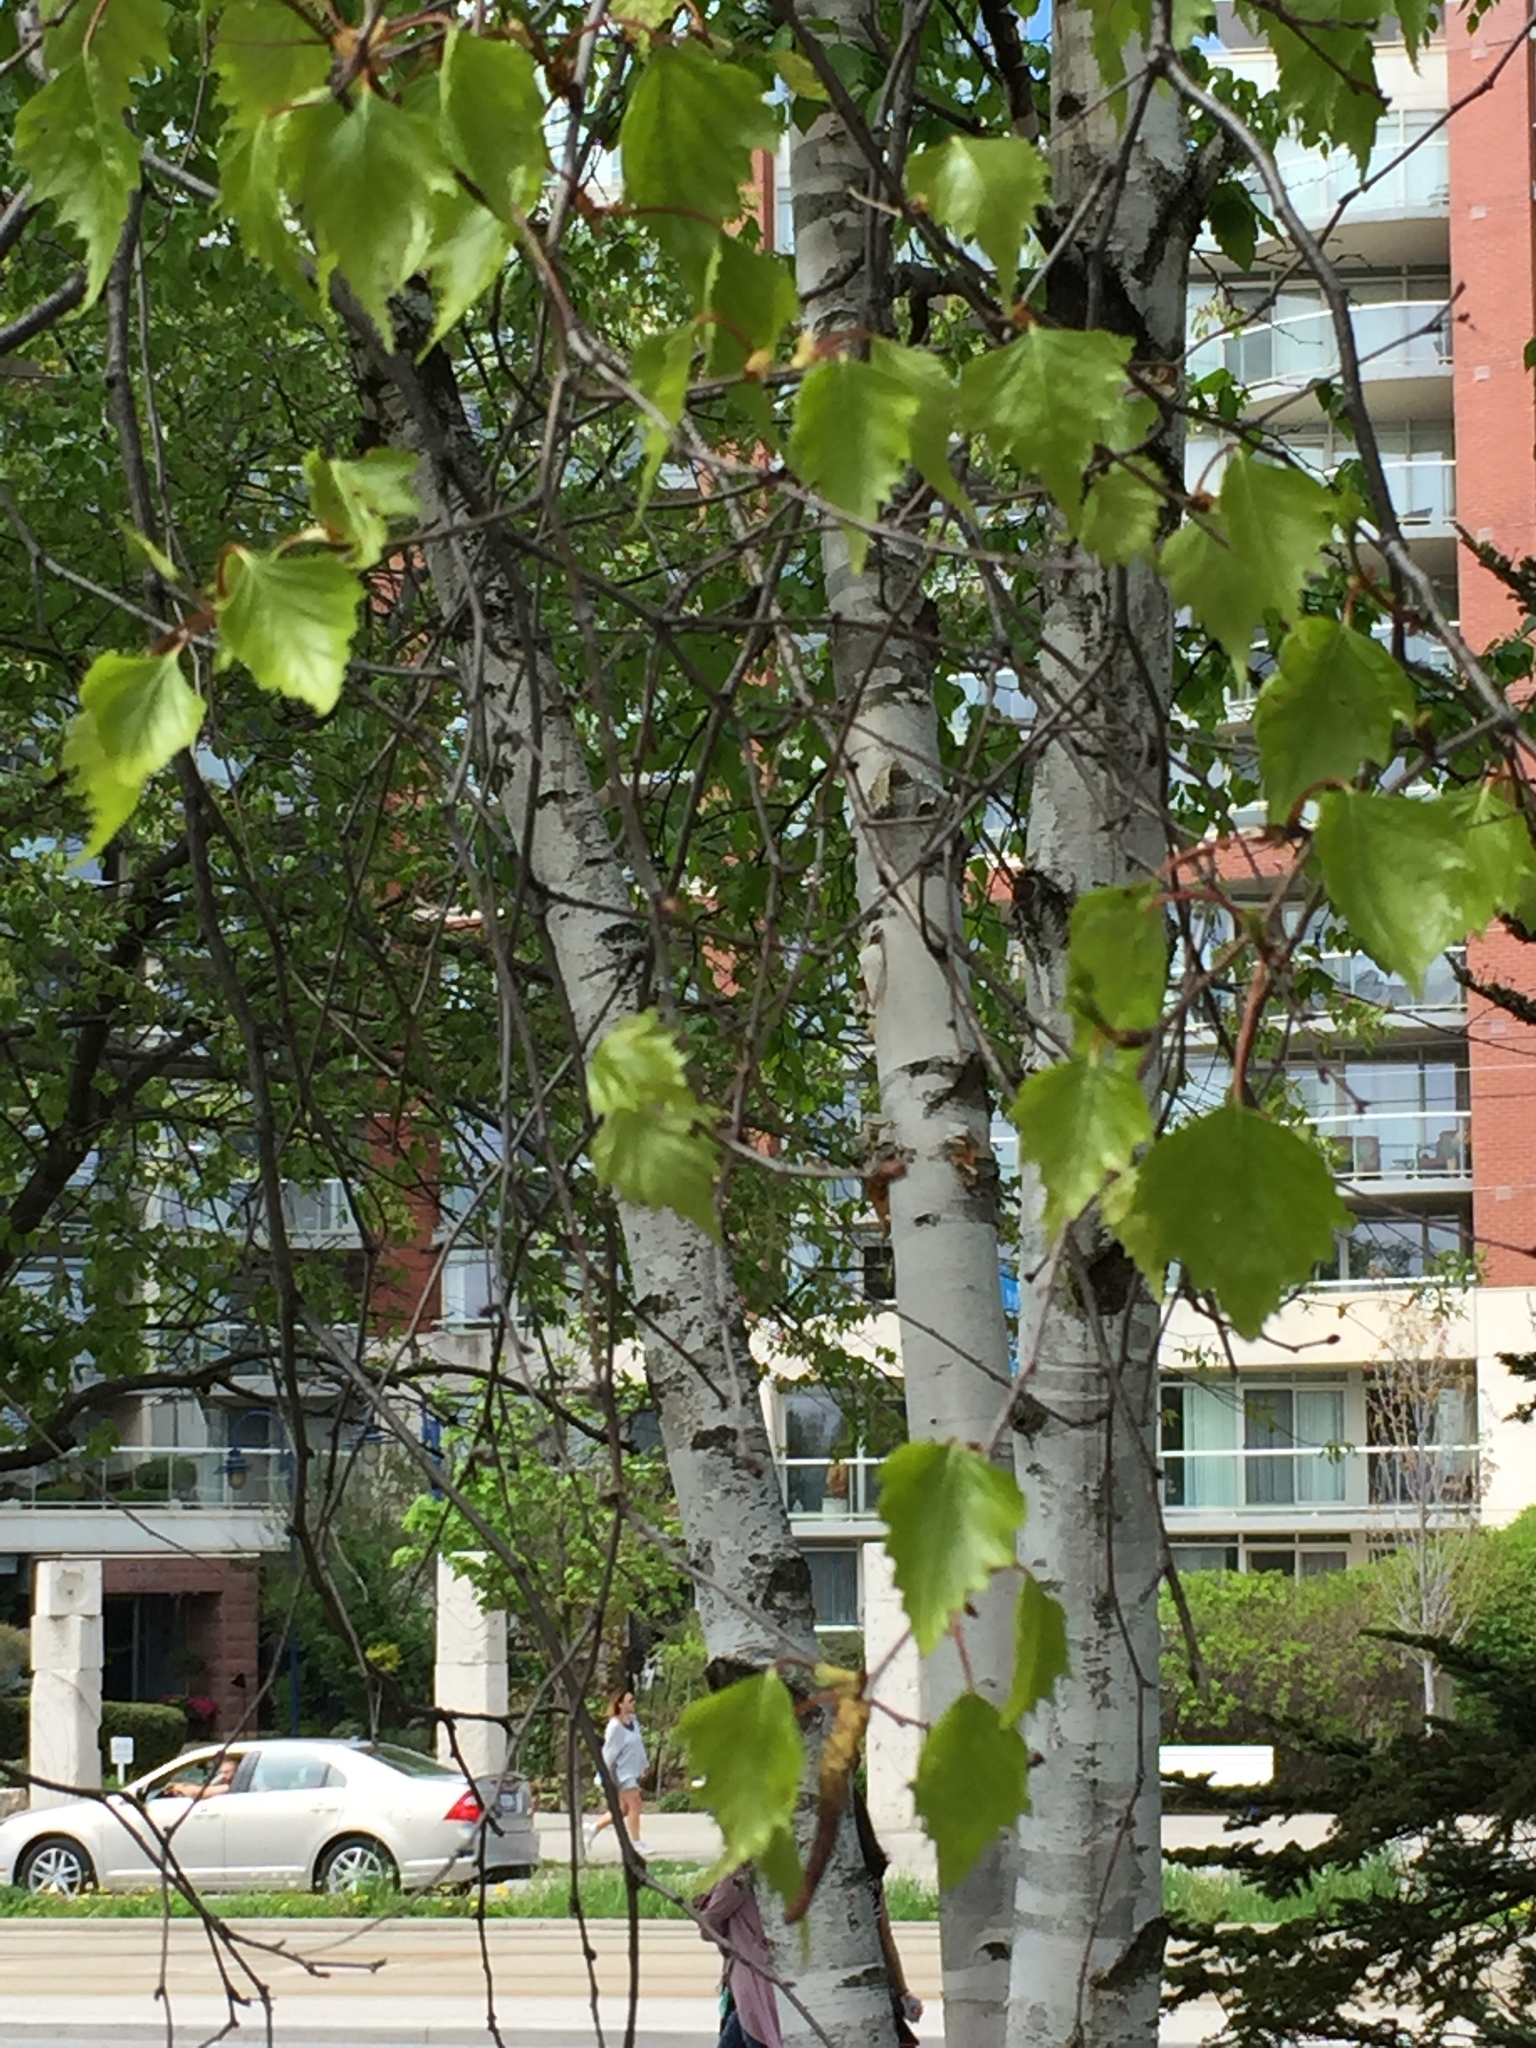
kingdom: Plantae
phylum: Tracheophyta
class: Magnoliopsida
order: Fagales
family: Betulaceae
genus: Betula
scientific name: Betula pendula
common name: Silver birch
